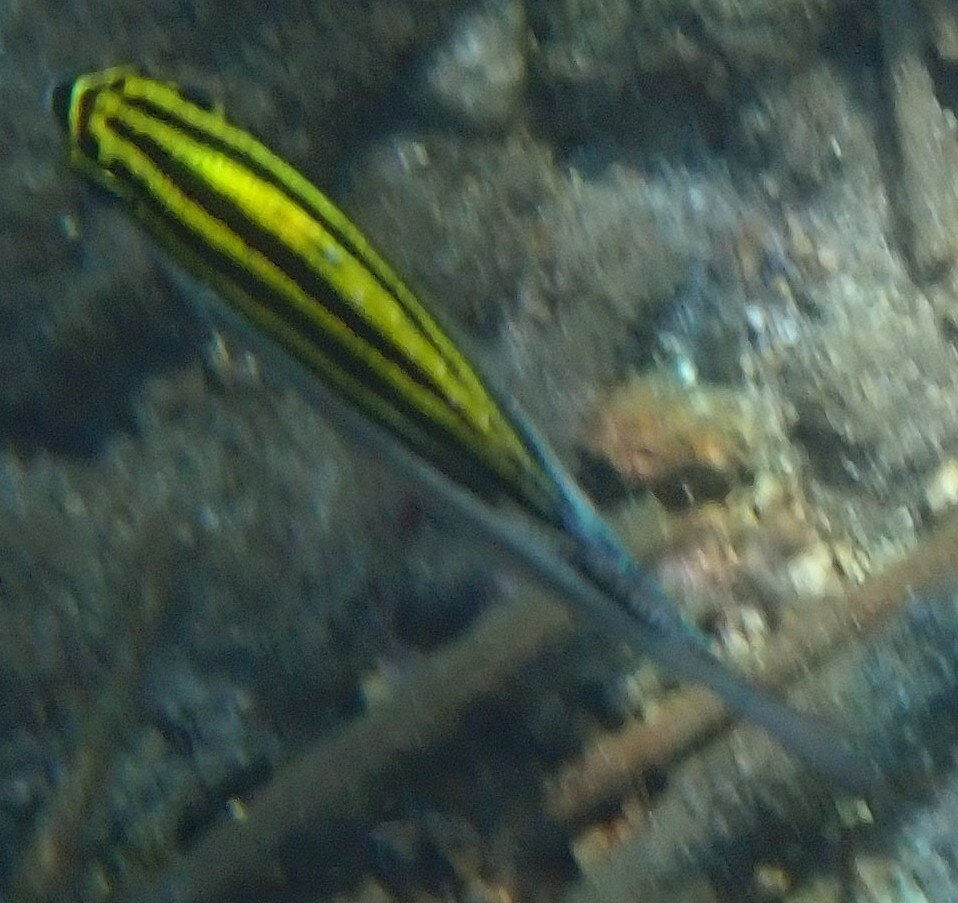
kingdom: Animalia
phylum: Chordata
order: Perciformes
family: Nemipteridae
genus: Scolopsis
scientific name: Scolopsis bilineata
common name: Two-lined monocle bream
